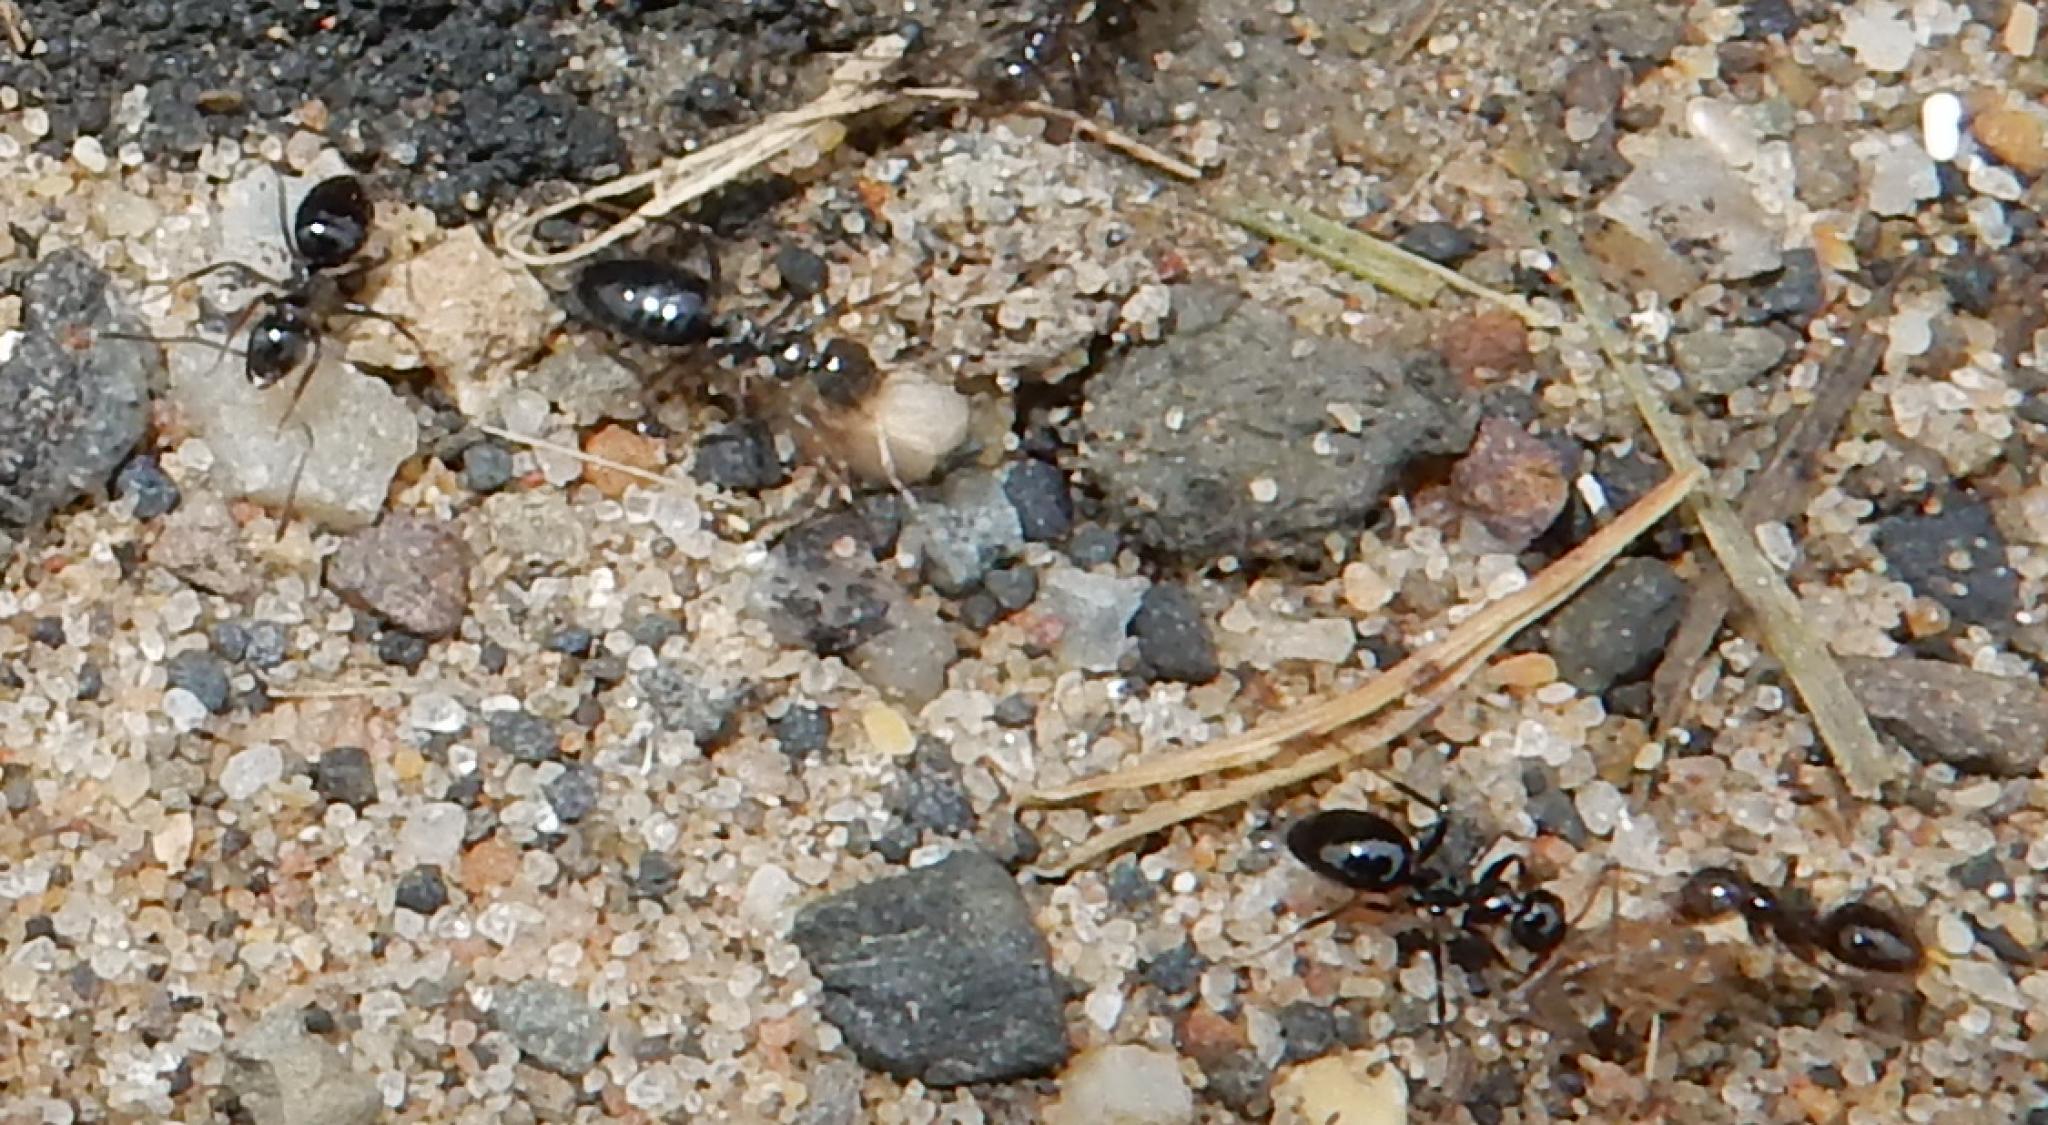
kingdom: Animalia
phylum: Arthropoda
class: Insecta
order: Hymenoptera
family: Formicidae
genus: Lepisiota
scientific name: Lepisiota capensis
